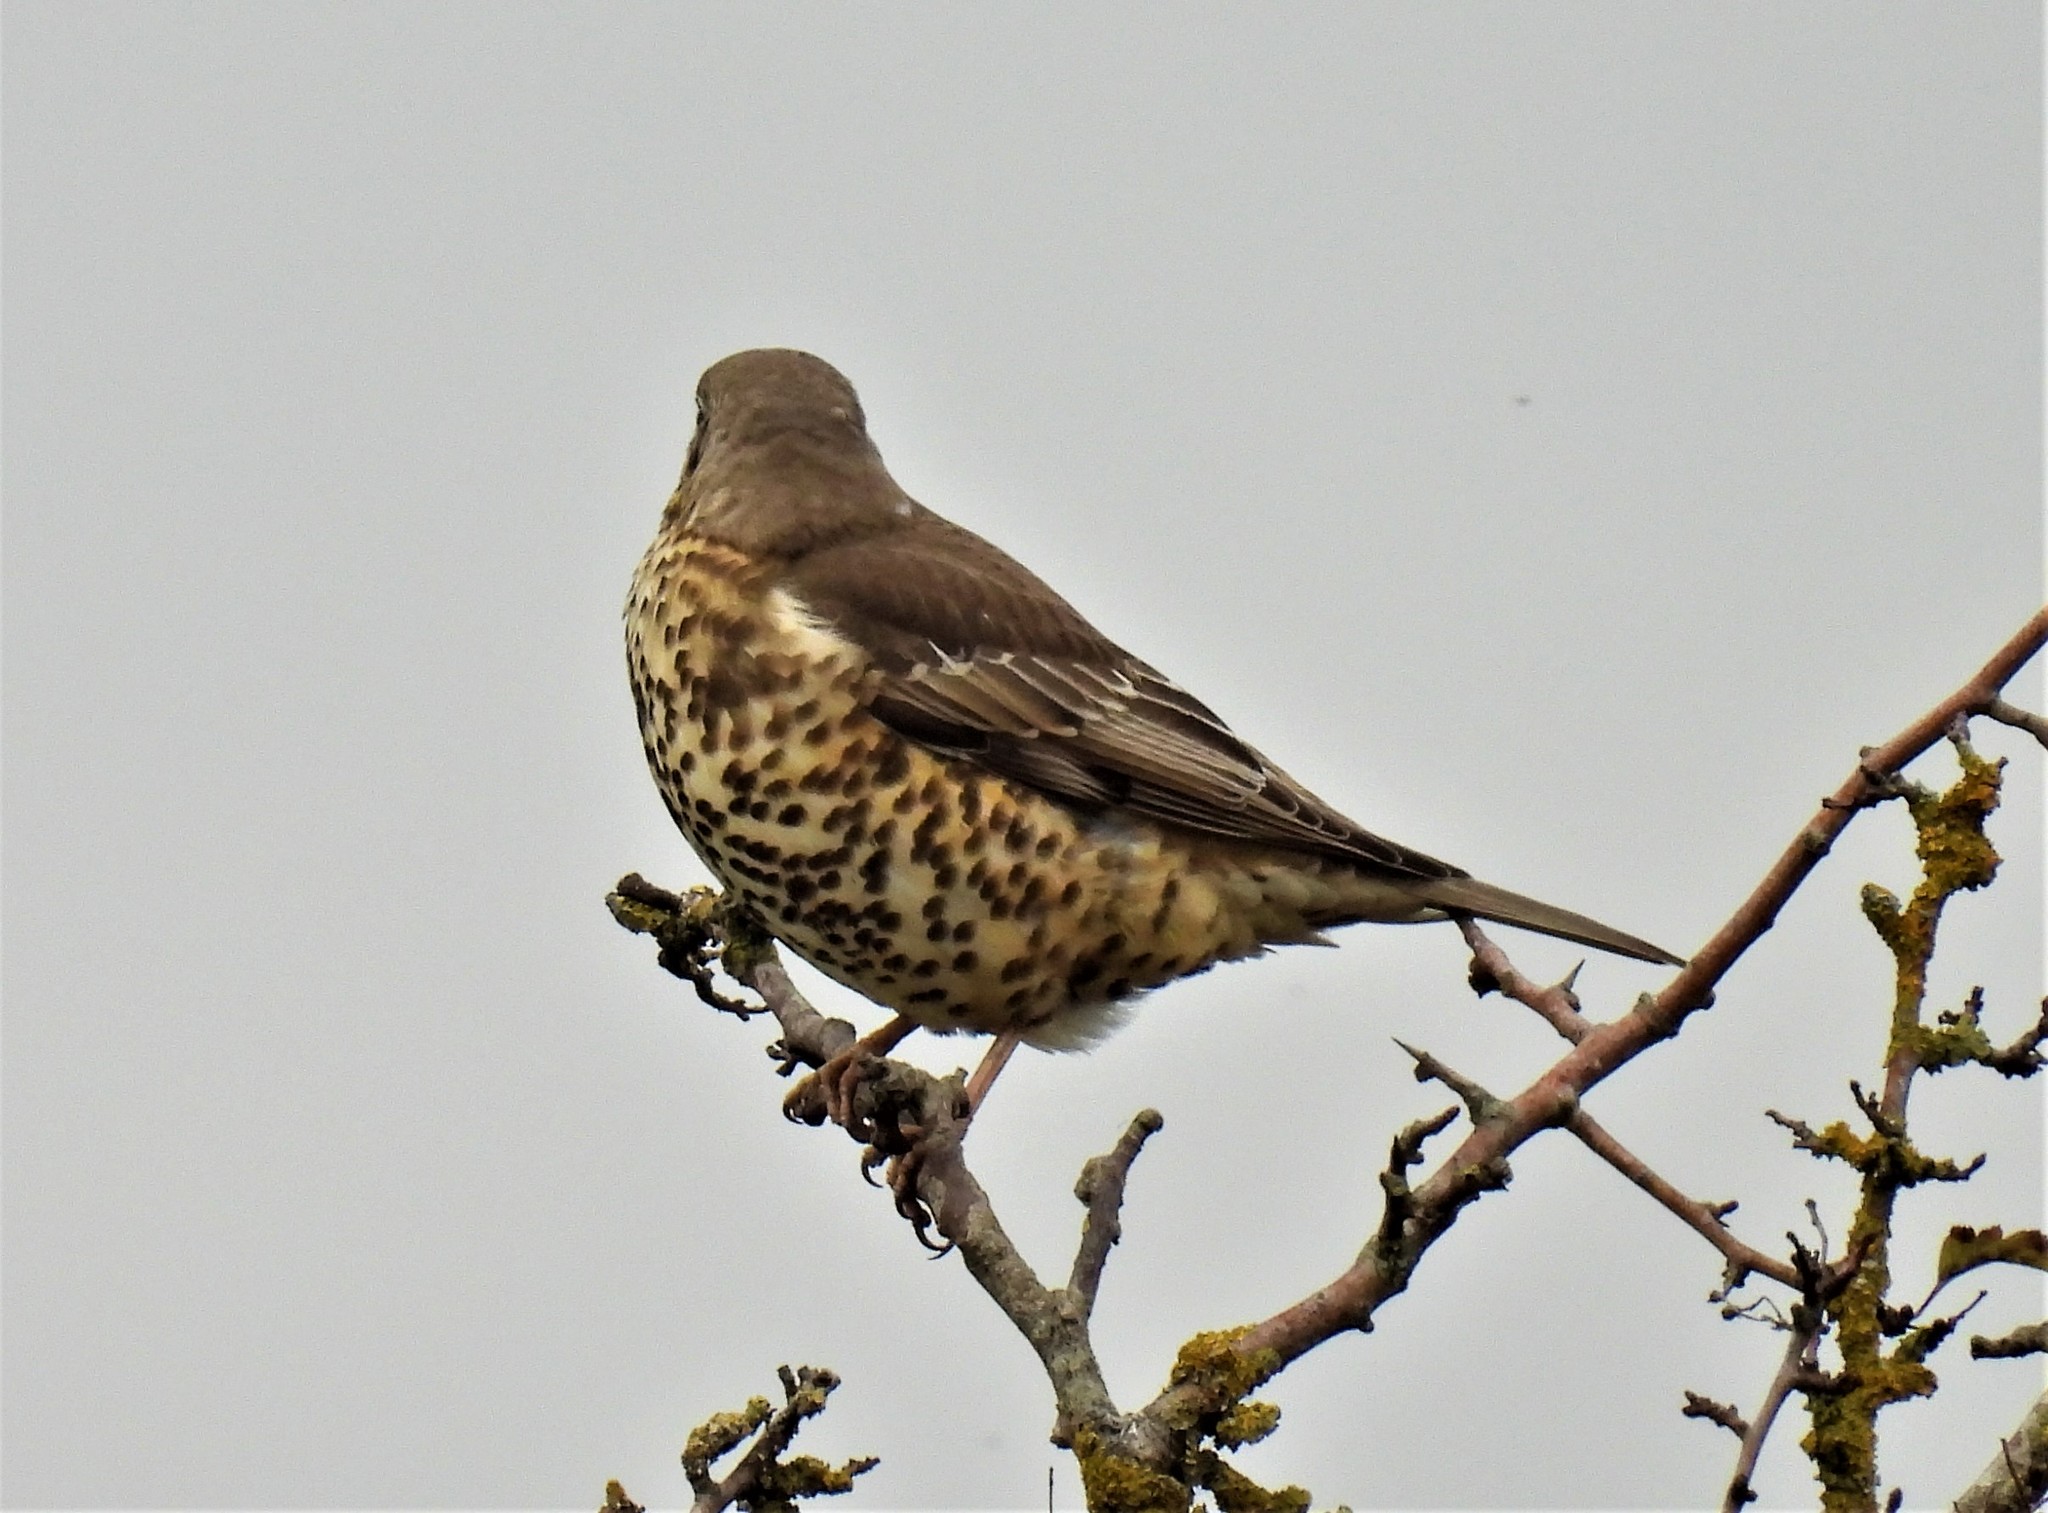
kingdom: Animalia
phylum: Chordata
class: Aves
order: Passeriformes
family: Turdidae
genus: Turdus
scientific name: Turdus viscivorus
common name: Mistle thrush
